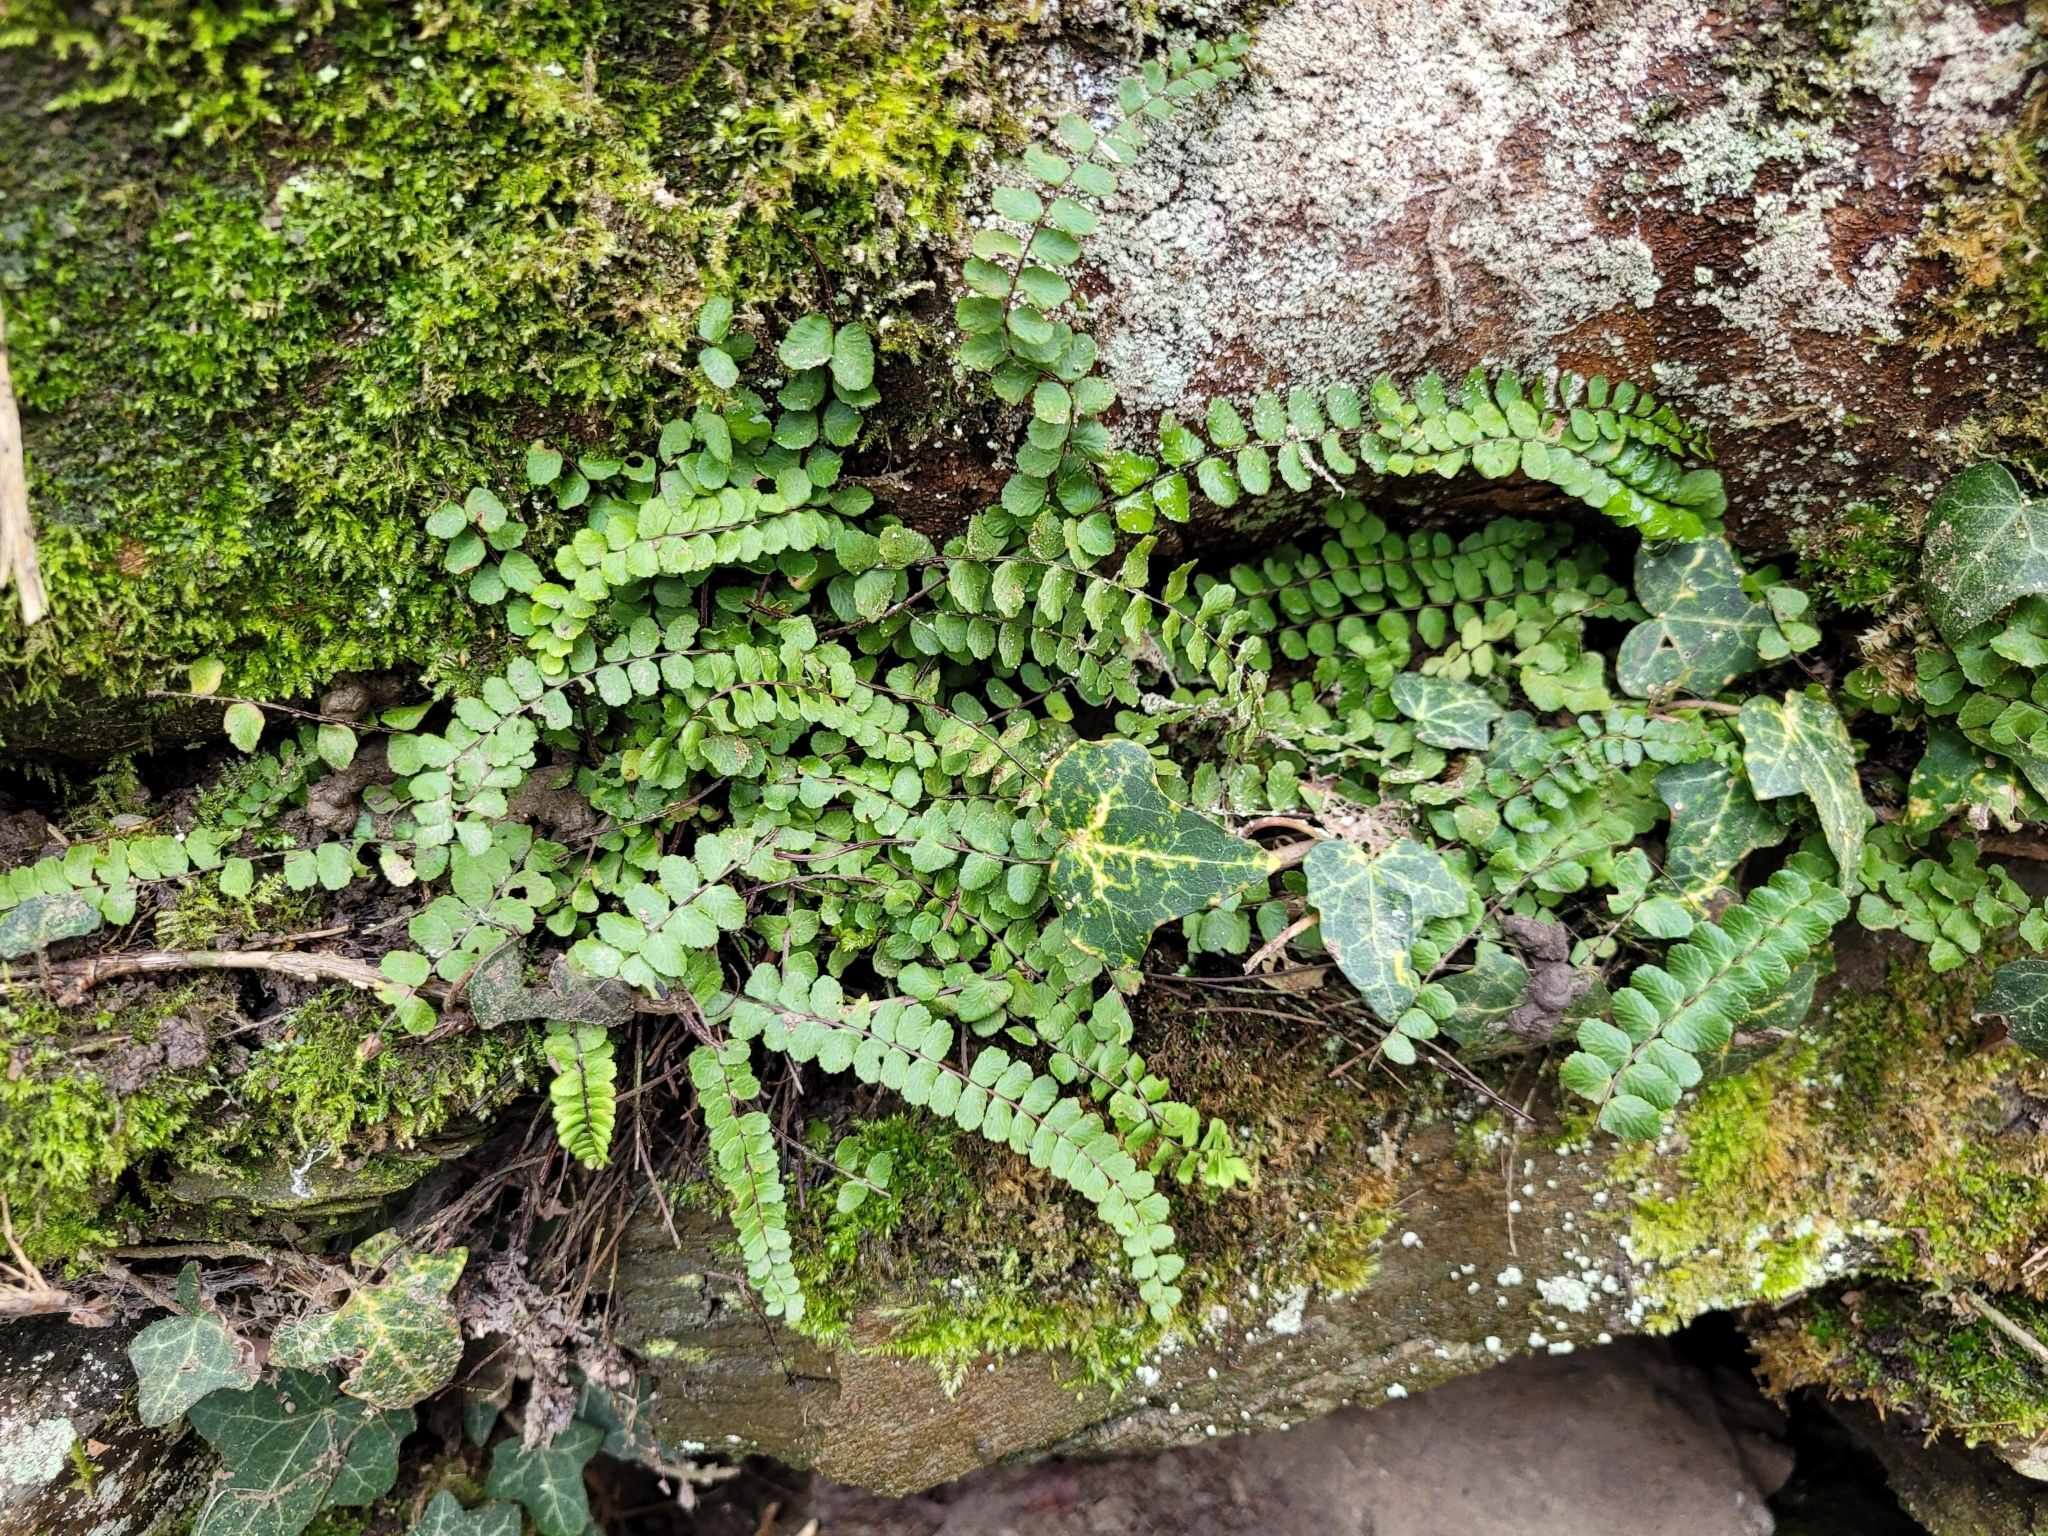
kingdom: Plantae
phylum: Tracheophyta
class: Polypodiopsida
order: Polypodiales
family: Aspleniaceae
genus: Asplenium
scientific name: Asplenium trichomanes
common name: Maidenhair spleenwort
